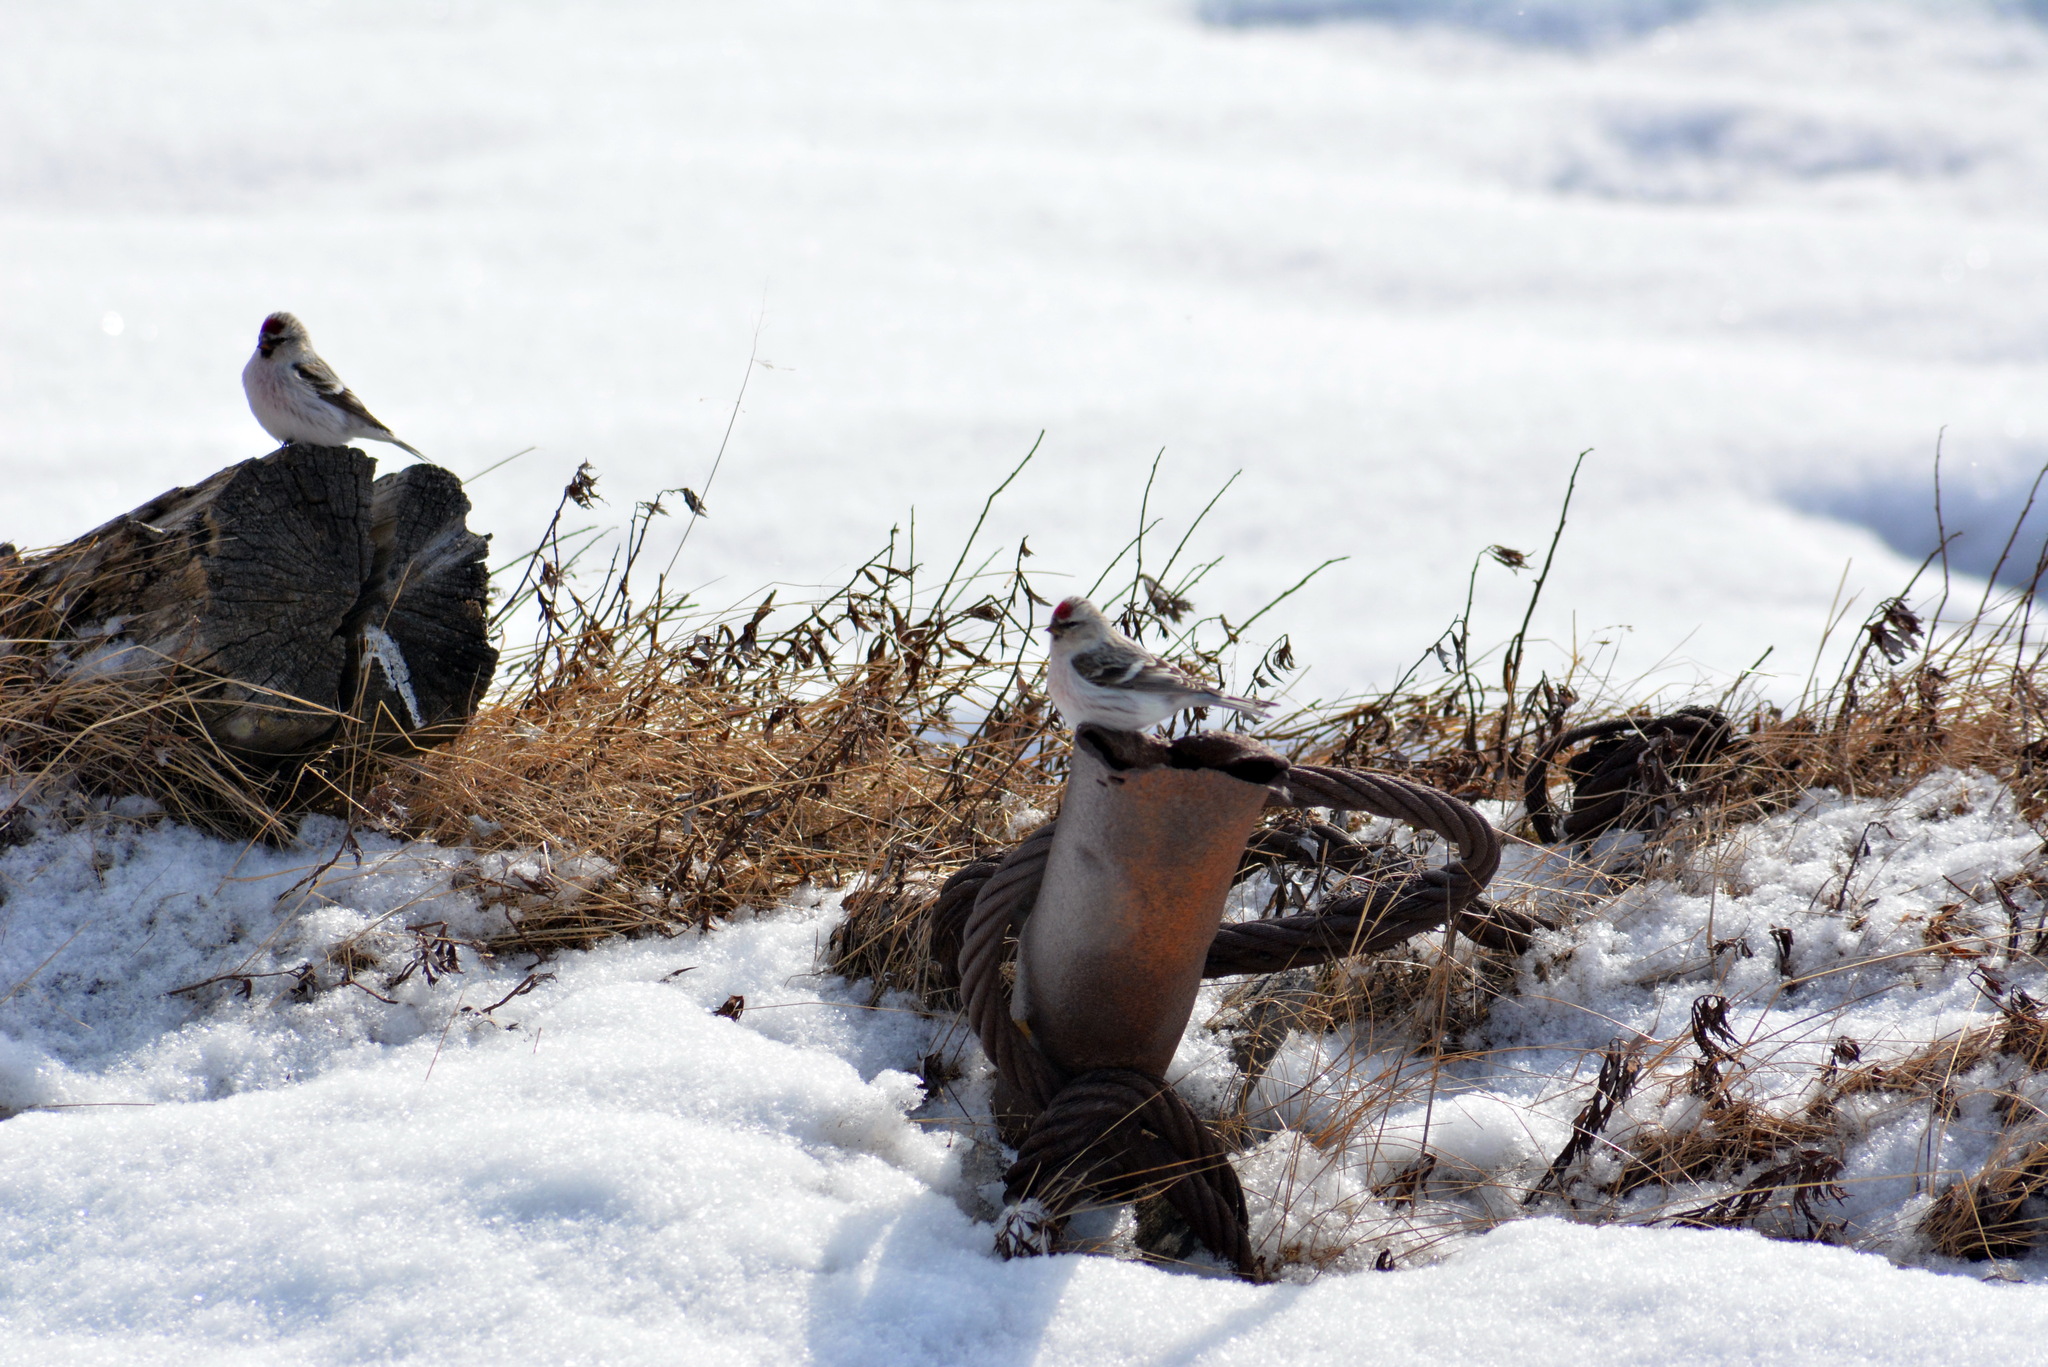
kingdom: Animalia
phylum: Chordata
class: Aves
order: Passeriformes
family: Fringillidae
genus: Acanthis
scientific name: Acanthis hornemanni
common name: Arctic redpoll
